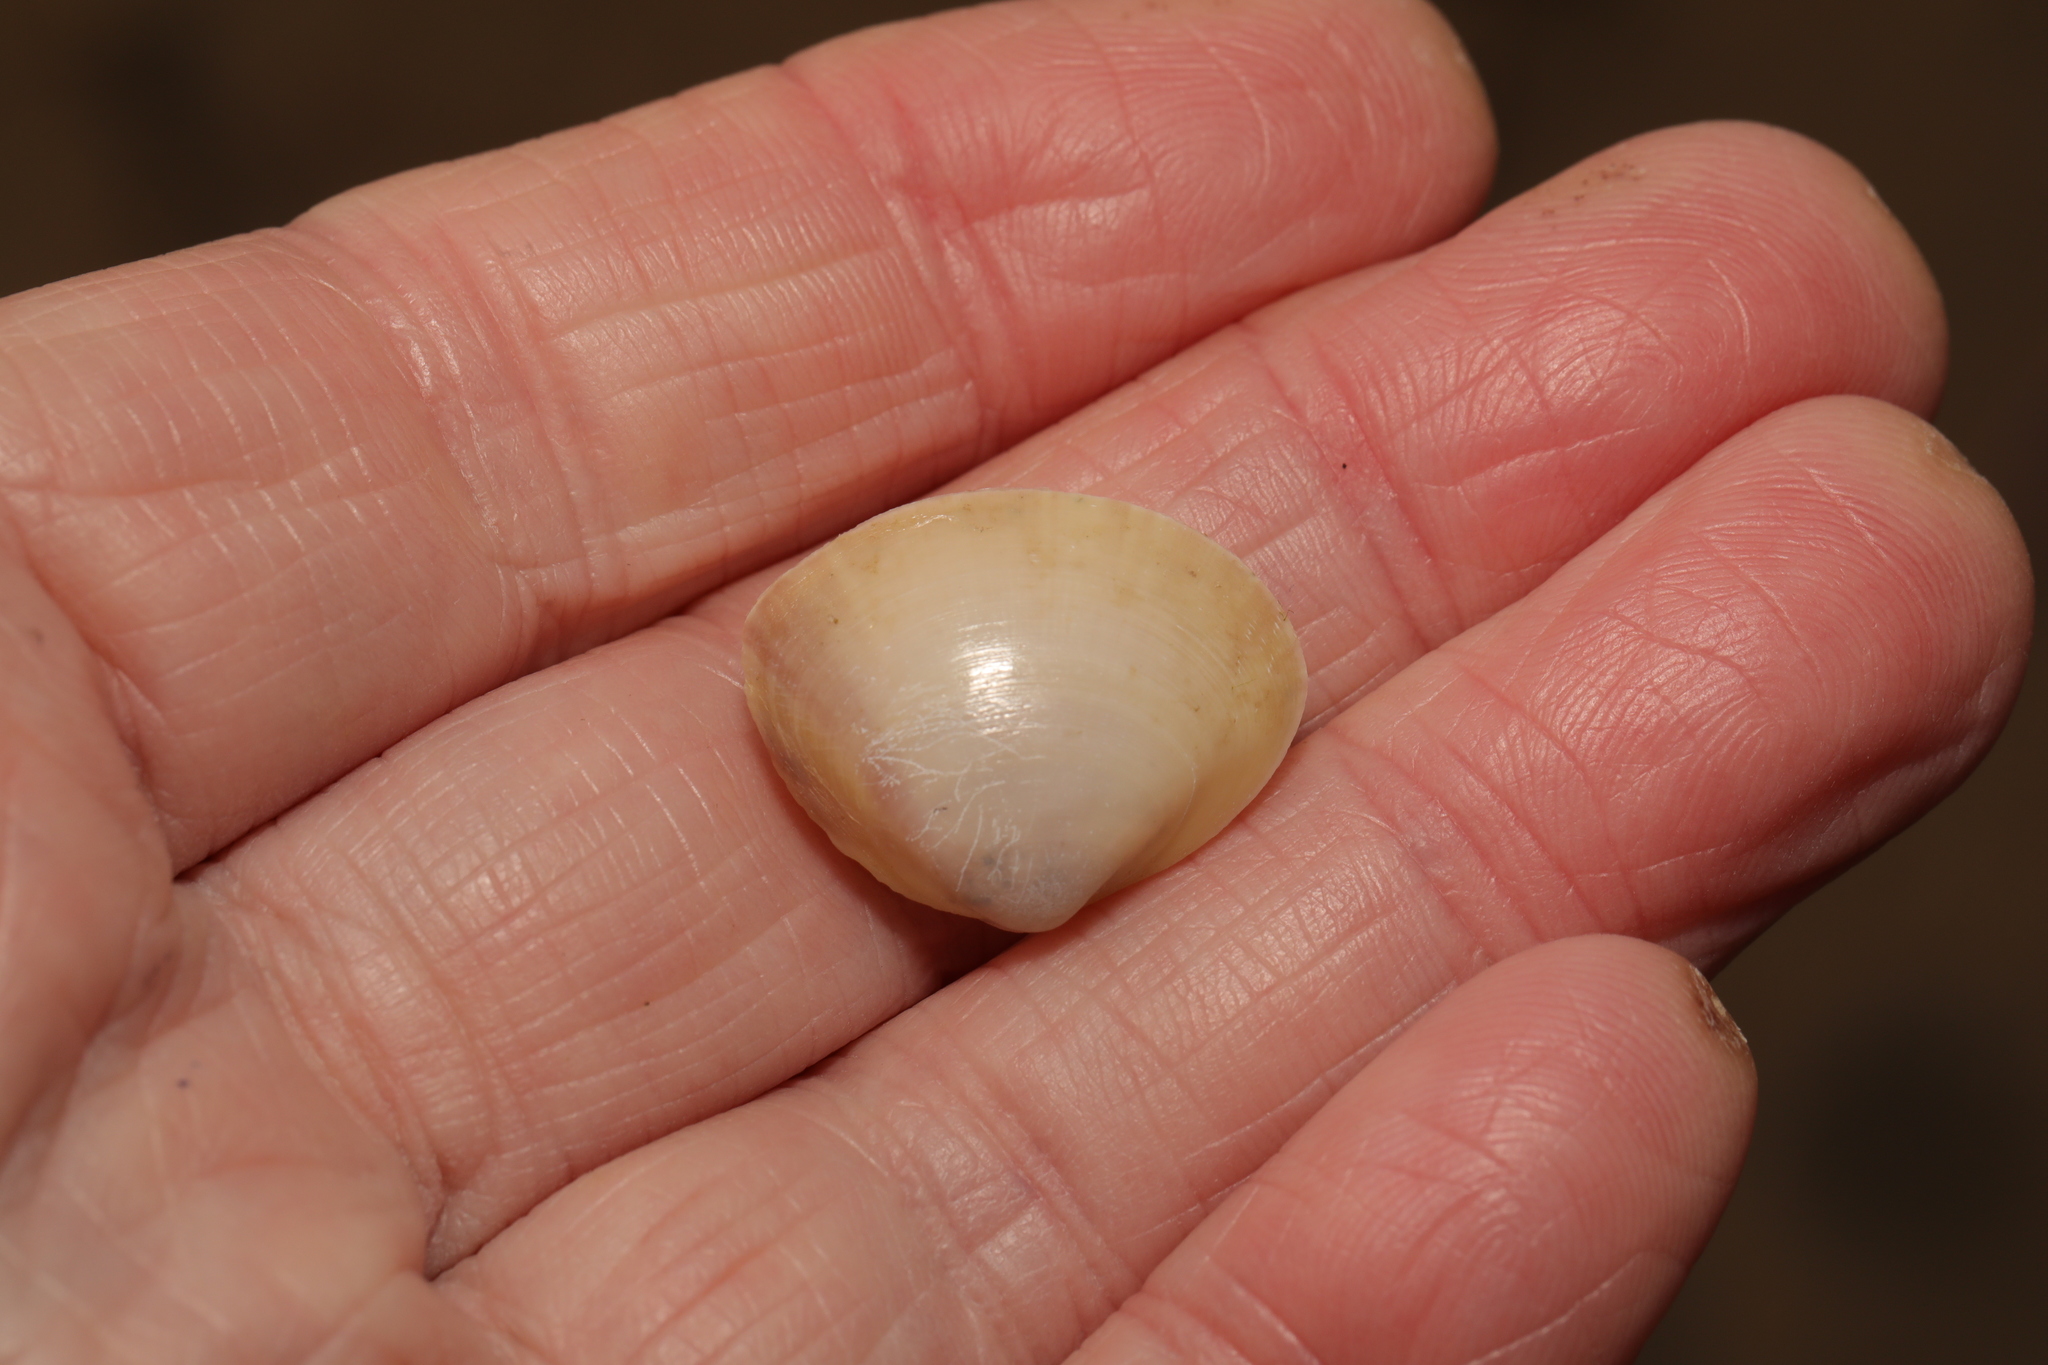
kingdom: Animalia
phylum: Mollusca
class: Bivalvia
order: Venerida
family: Mactridae
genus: Mactra
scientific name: Mactra stultorum
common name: Rayed trough shell
